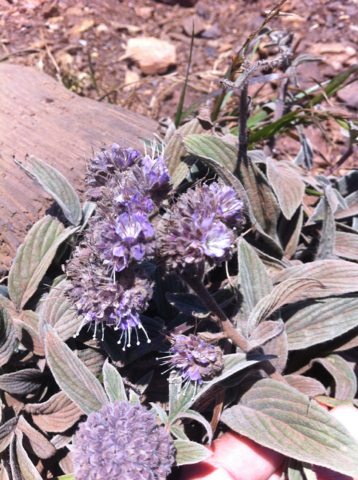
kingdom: Plantae
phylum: Tracheophyta
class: Magnoliopsida
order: Boraginales
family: Hydrophyllaceae
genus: Phacelia
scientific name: Phacelia californica
